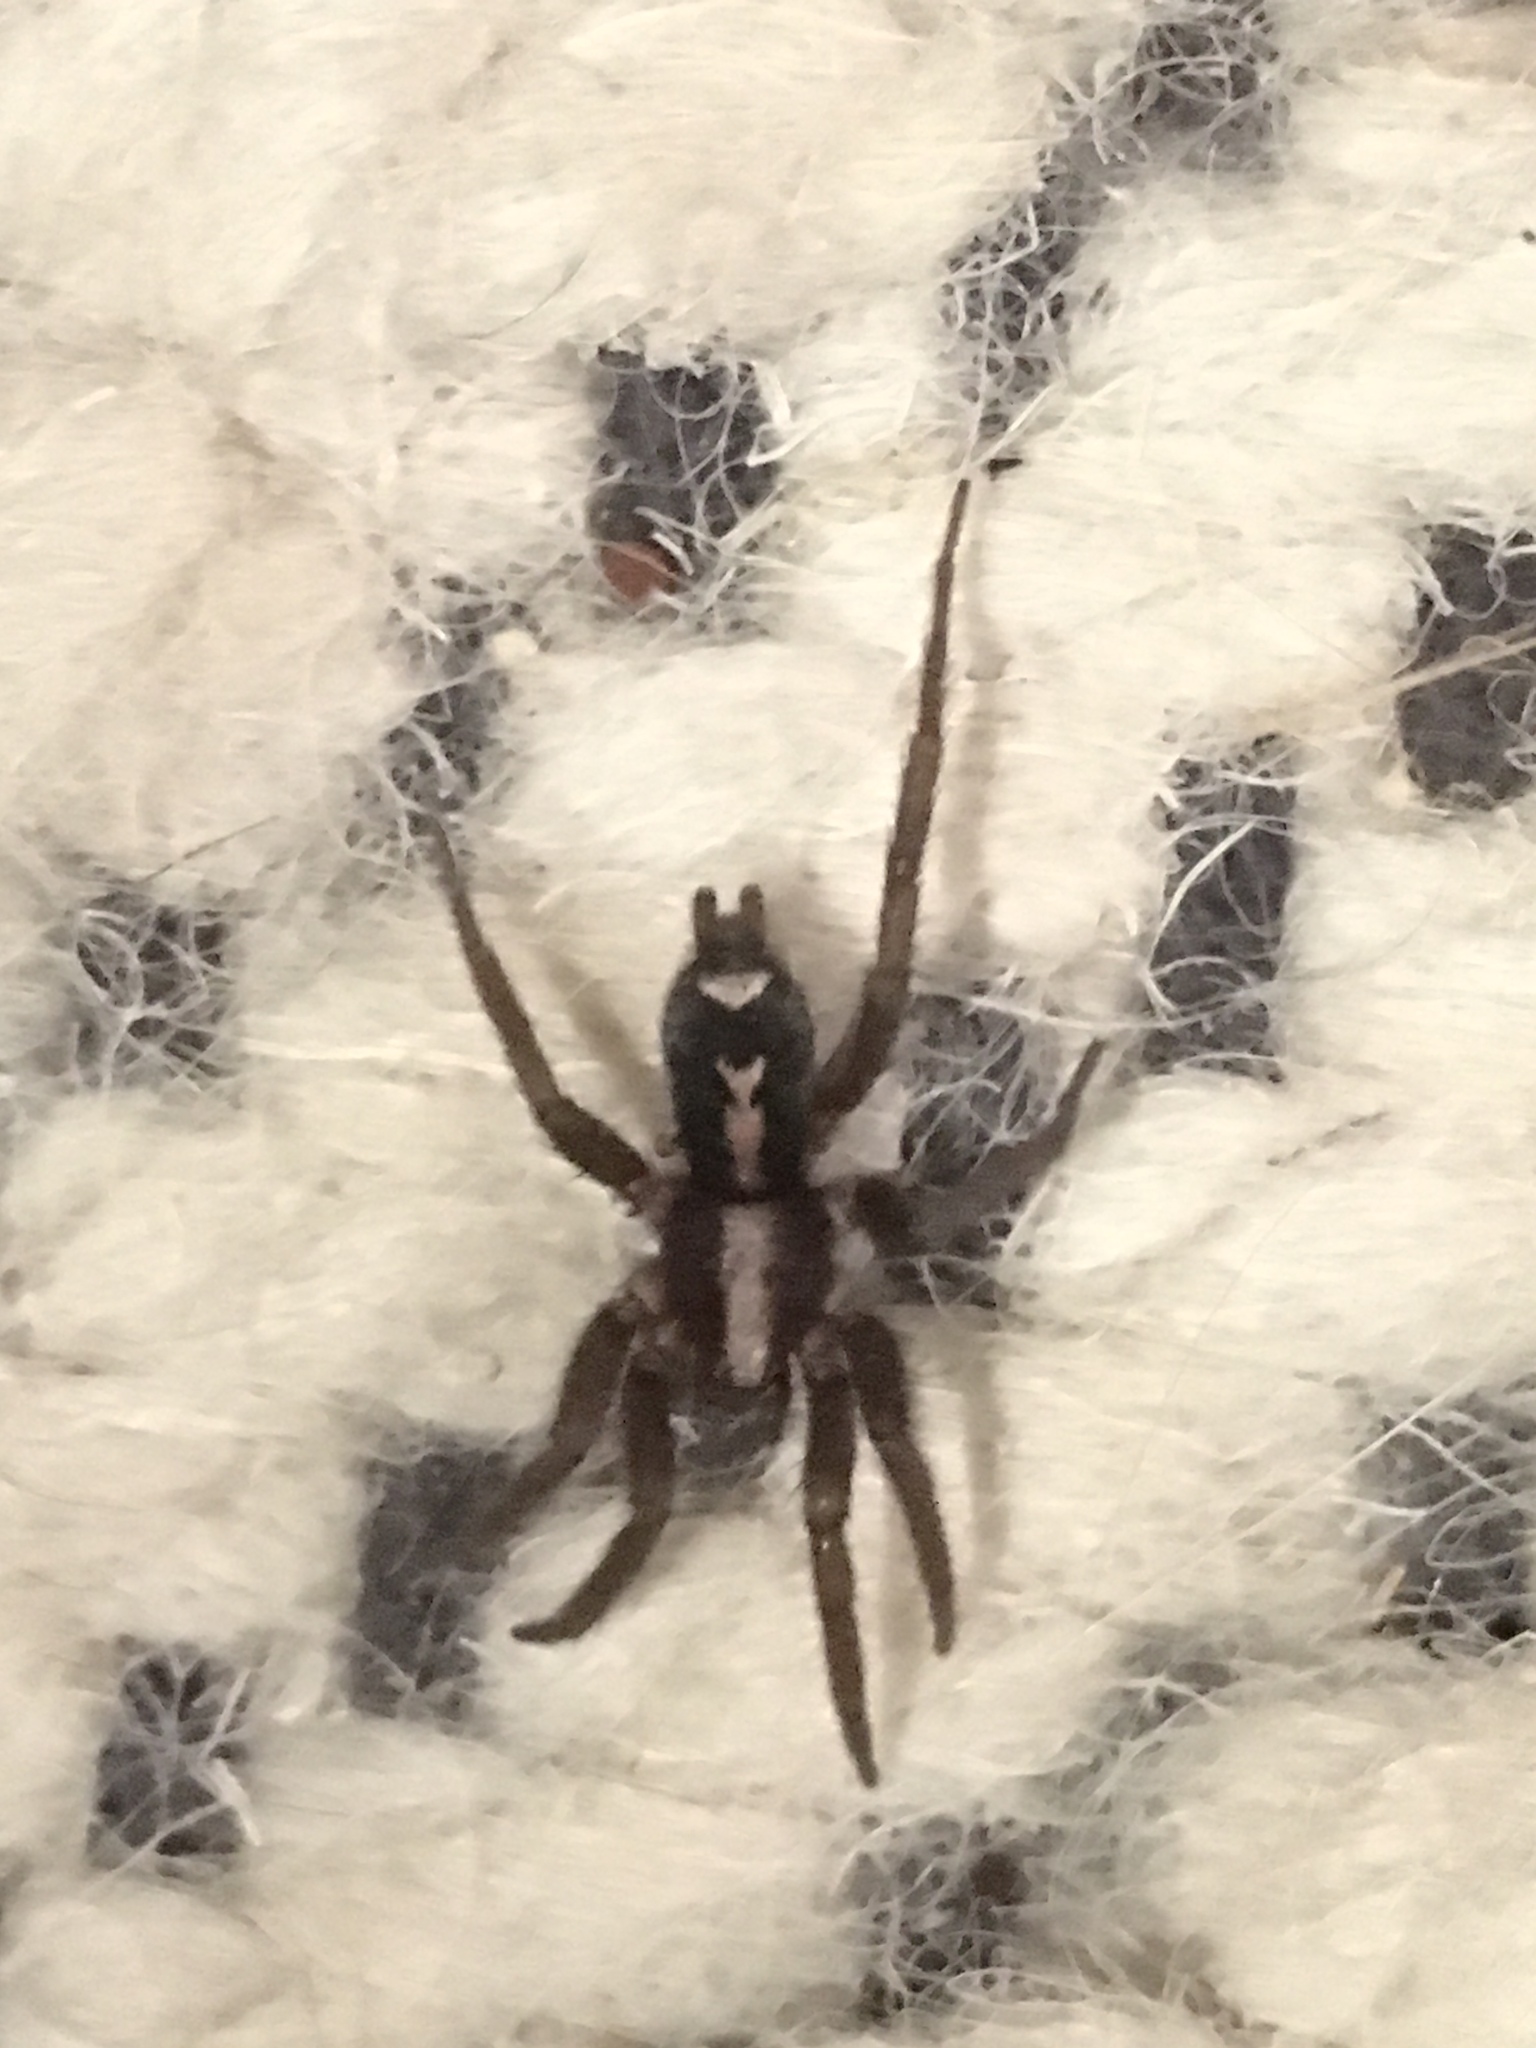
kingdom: Animalia
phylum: Arthropoda
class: Arachnida
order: Araneae
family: Gnaphosidae
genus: Herpyllus
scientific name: Herpyllus propinquus
